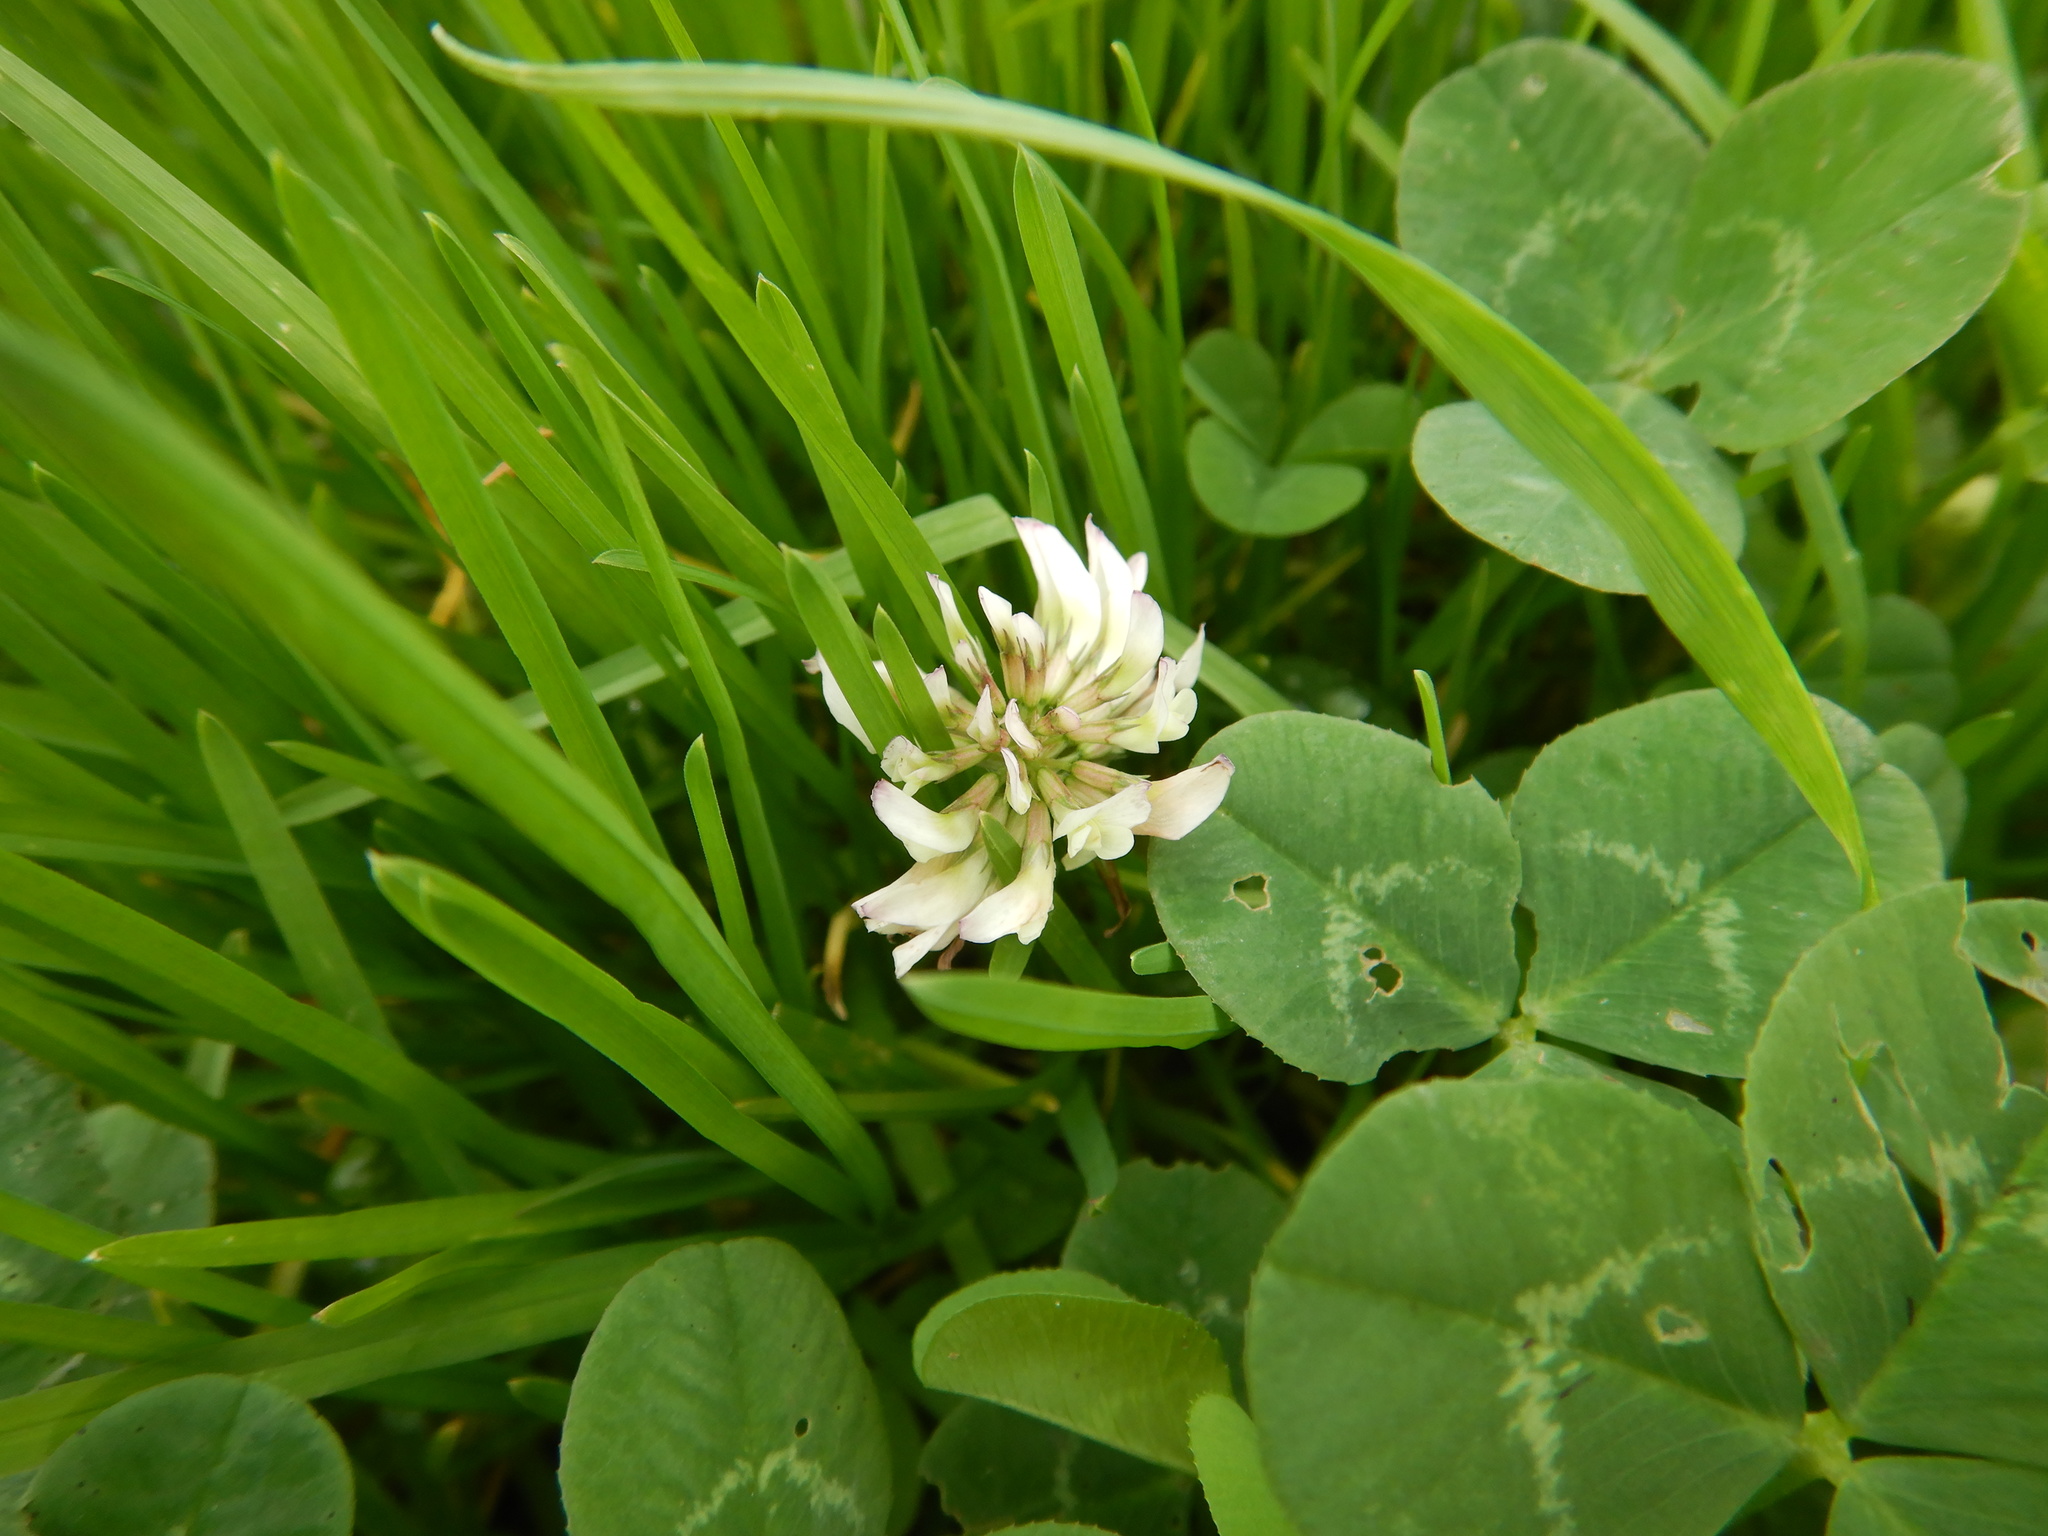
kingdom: Plantae
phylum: Tracheophyta
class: Magnoliopsida
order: Fabales
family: Fabaceae
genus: Trifolium
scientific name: Trifolium repens
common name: White clover
